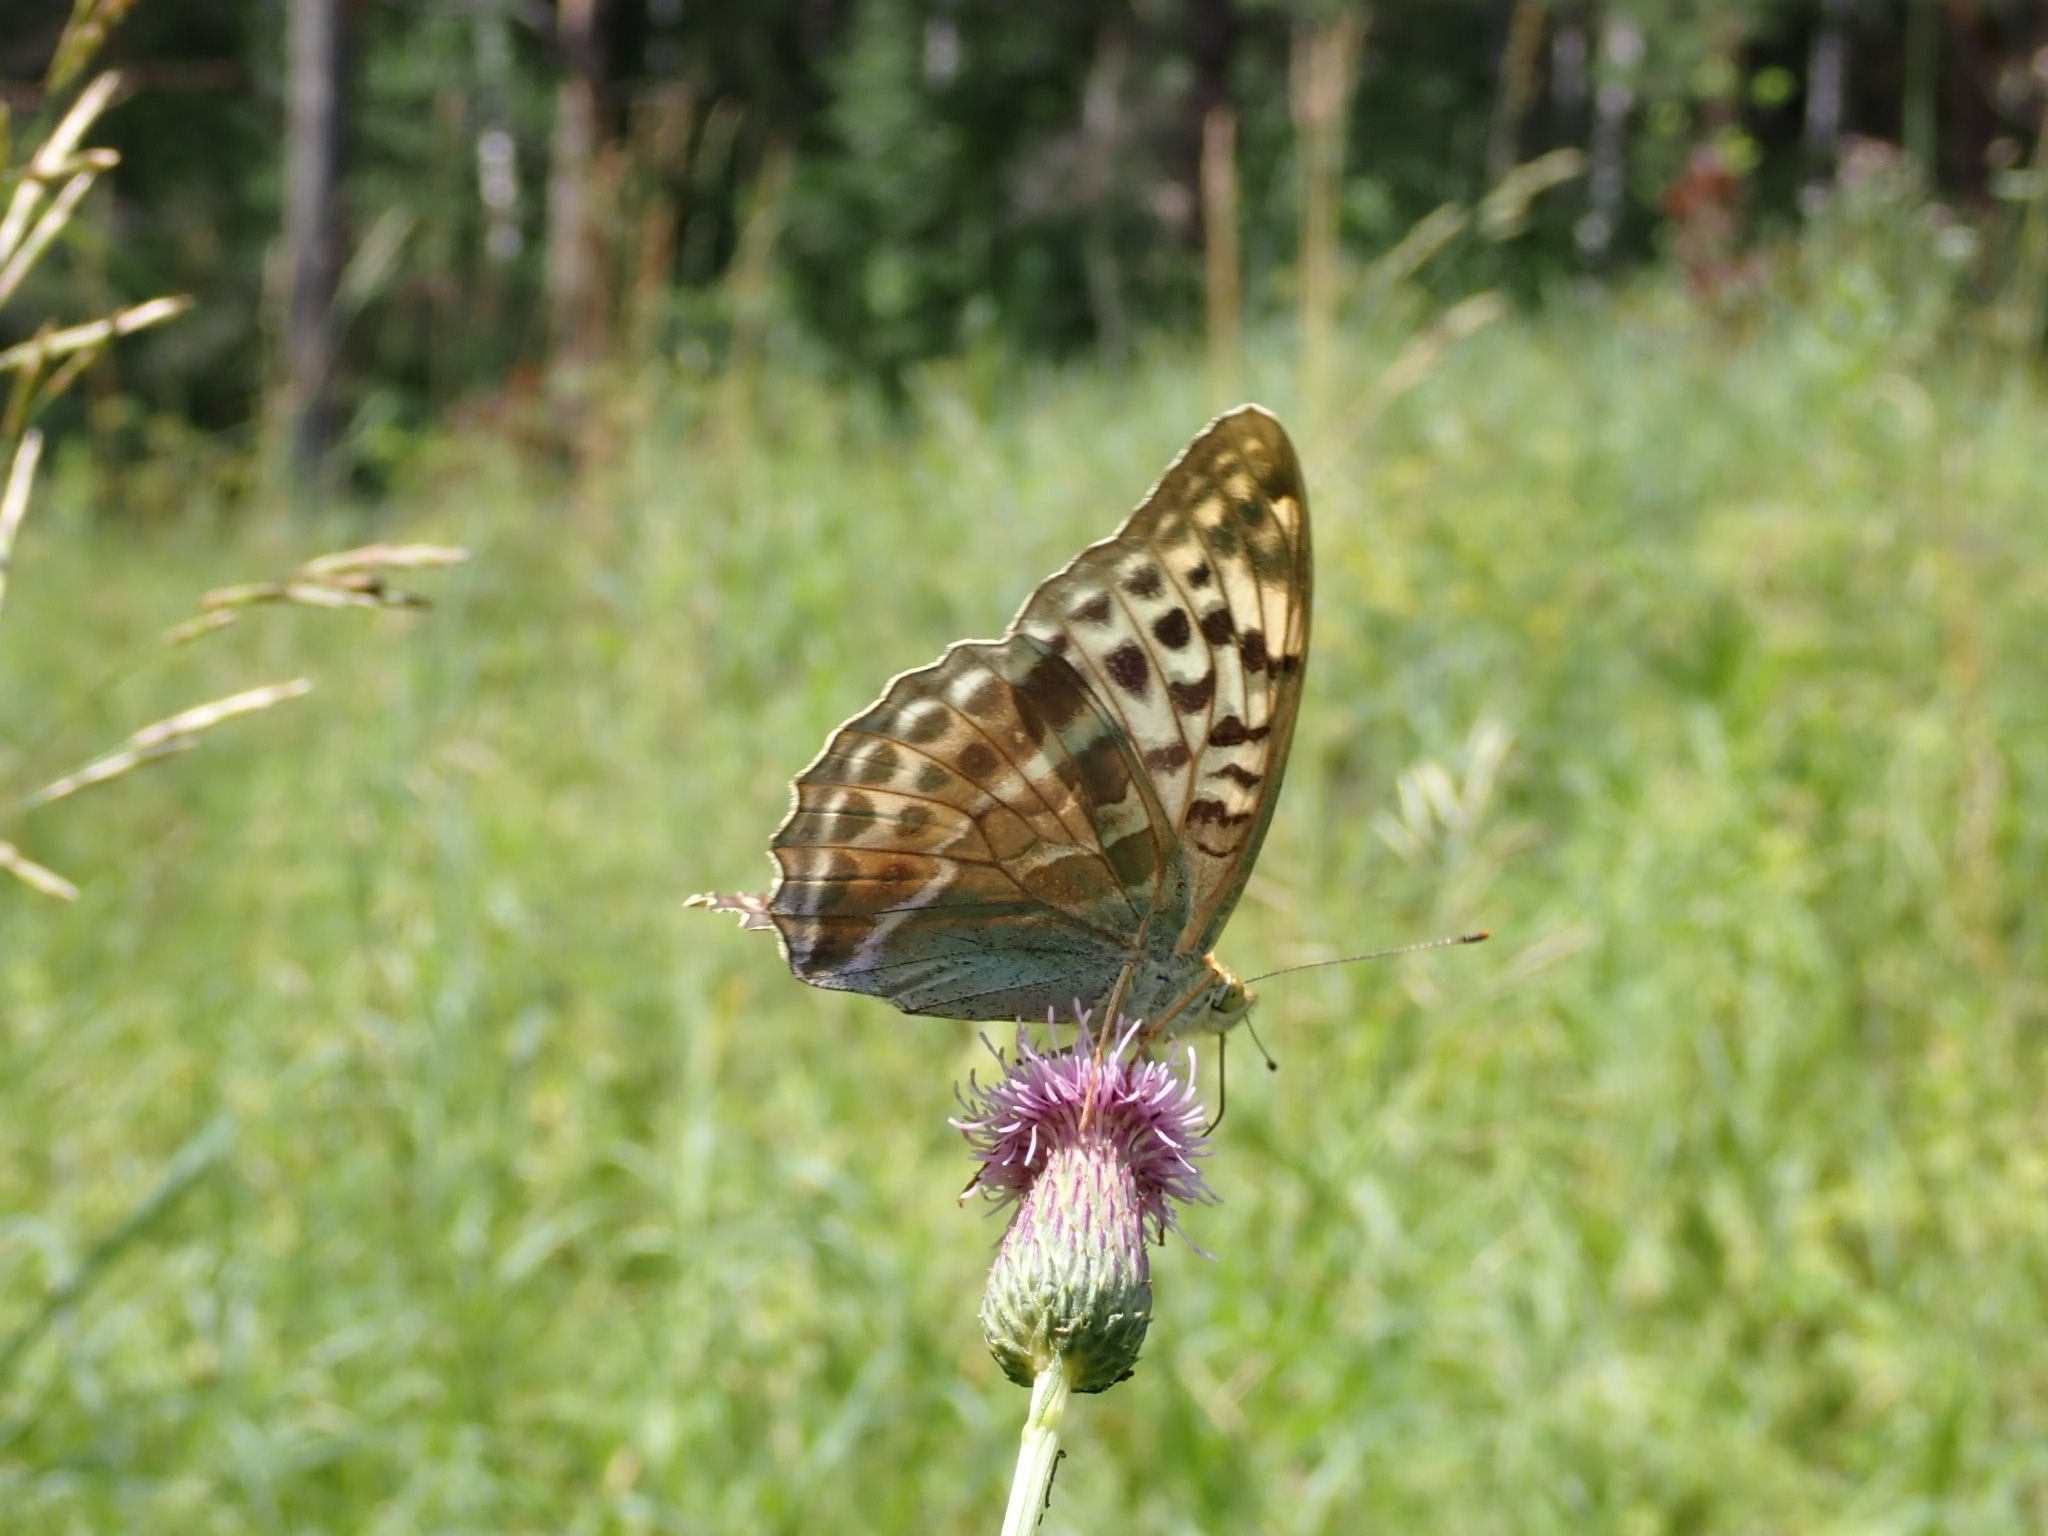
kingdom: Animalia
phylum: Arthropoda
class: Insecta
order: Lepidoptera
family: Nymphalidae
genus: Argynnis
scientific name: Argynnis paphia
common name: Silver-washed fritillary
